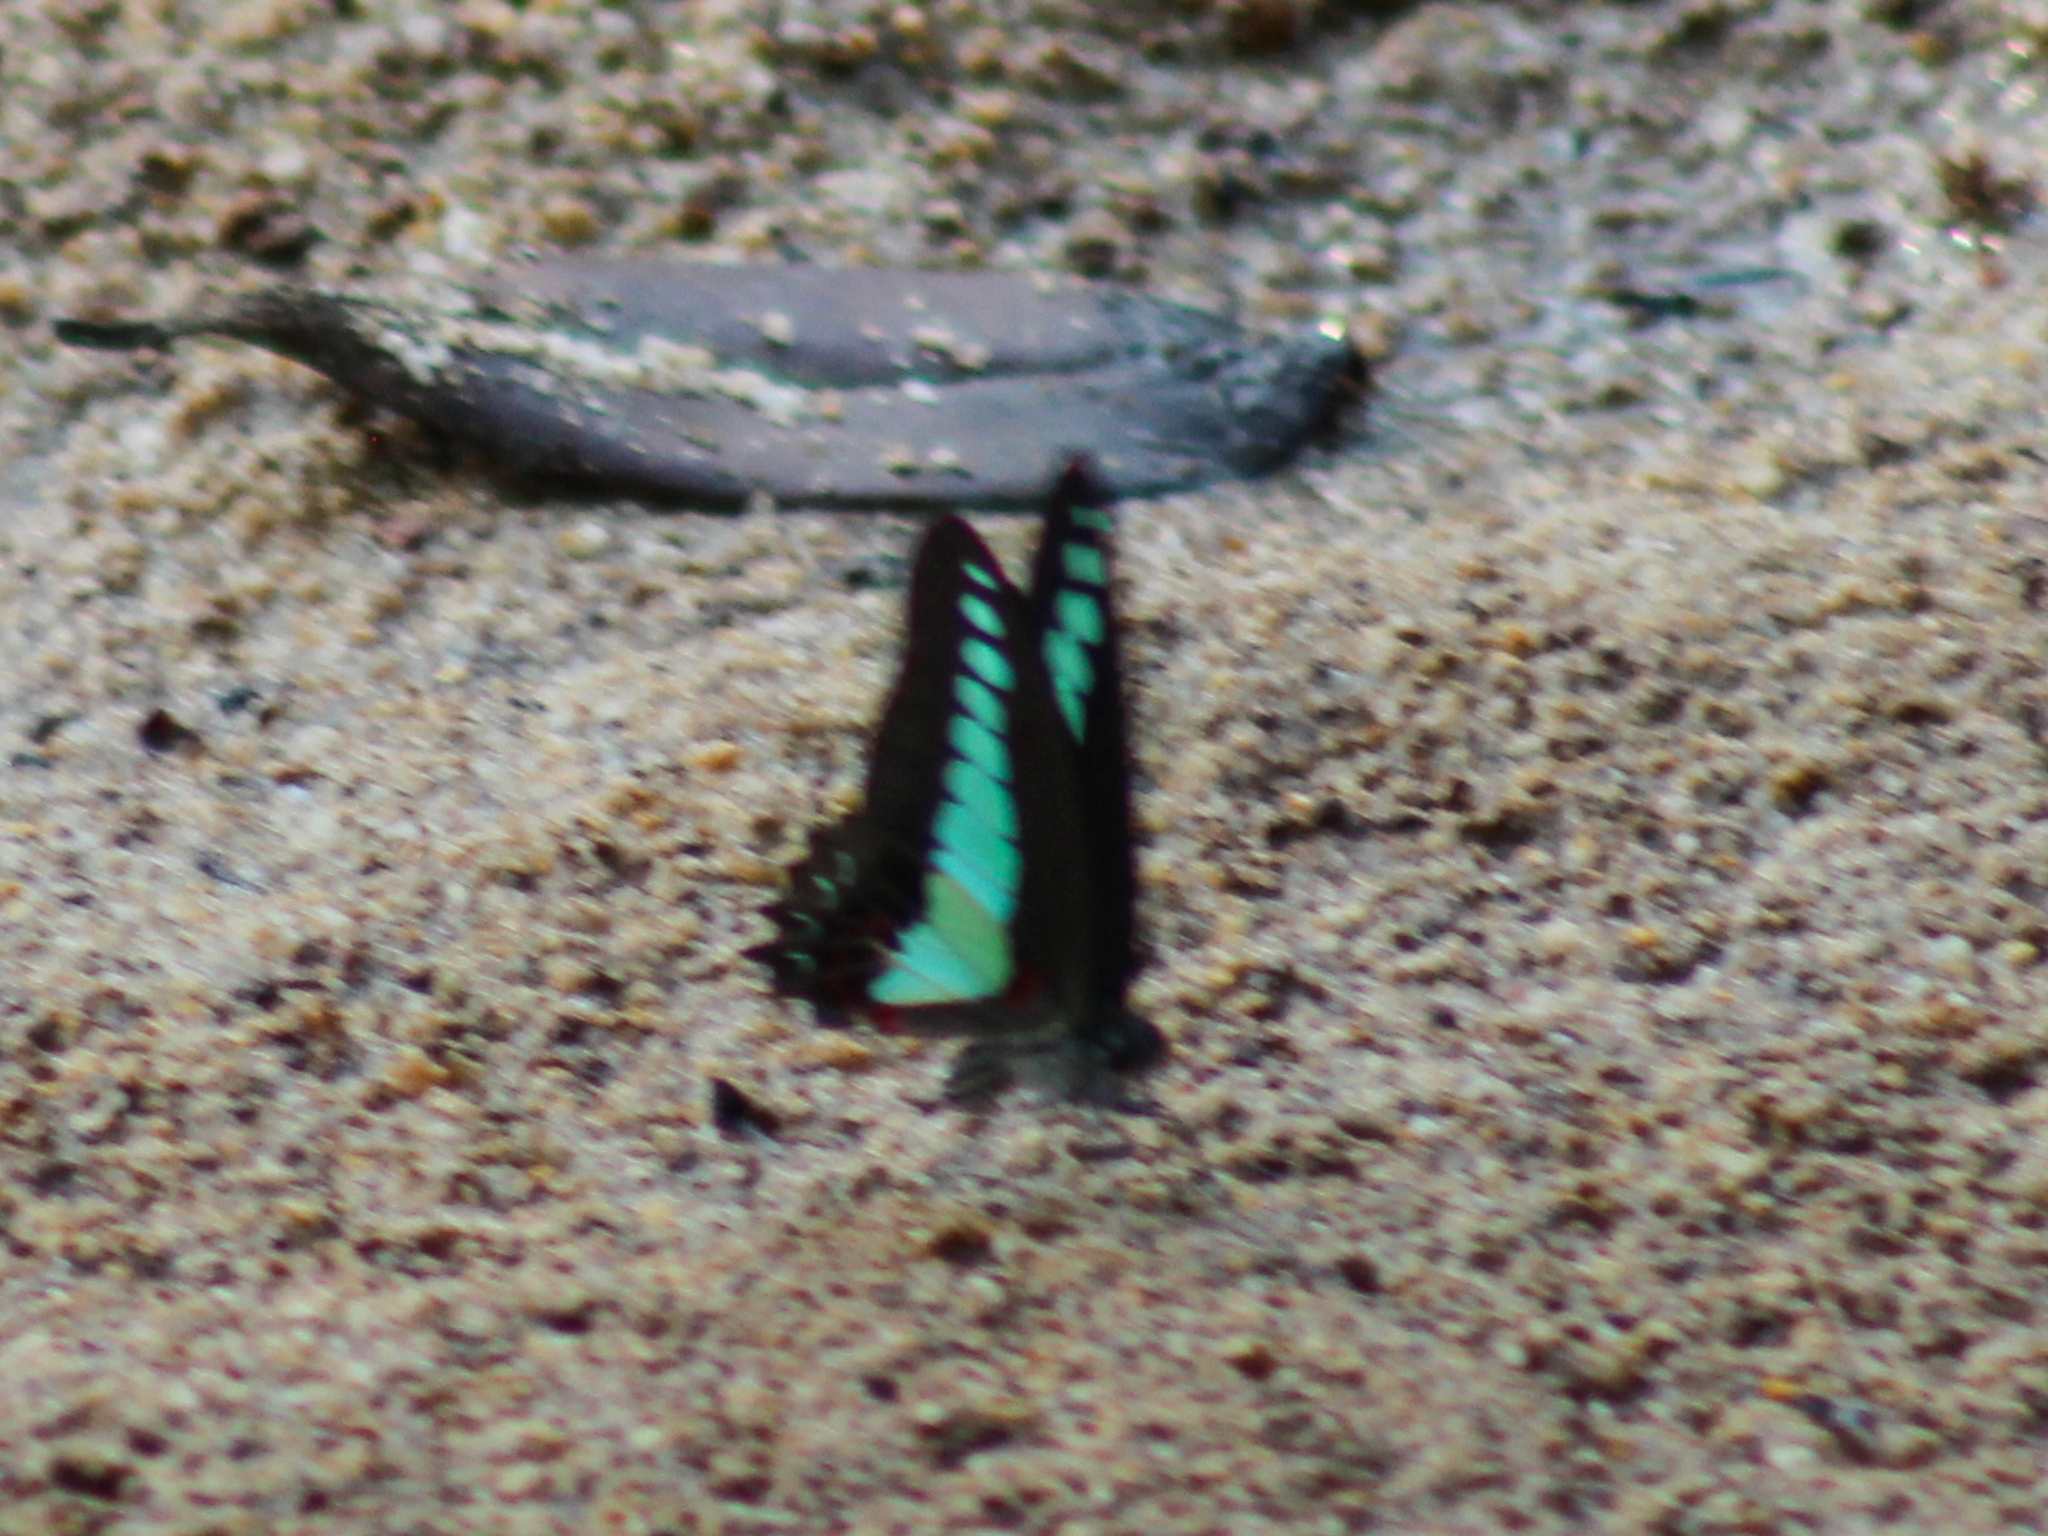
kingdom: Fungi
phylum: Ascomycota
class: Sordariomycetes
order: Microascales
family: Microascaceae
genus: Graphium
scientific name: Graphium sarpedon
